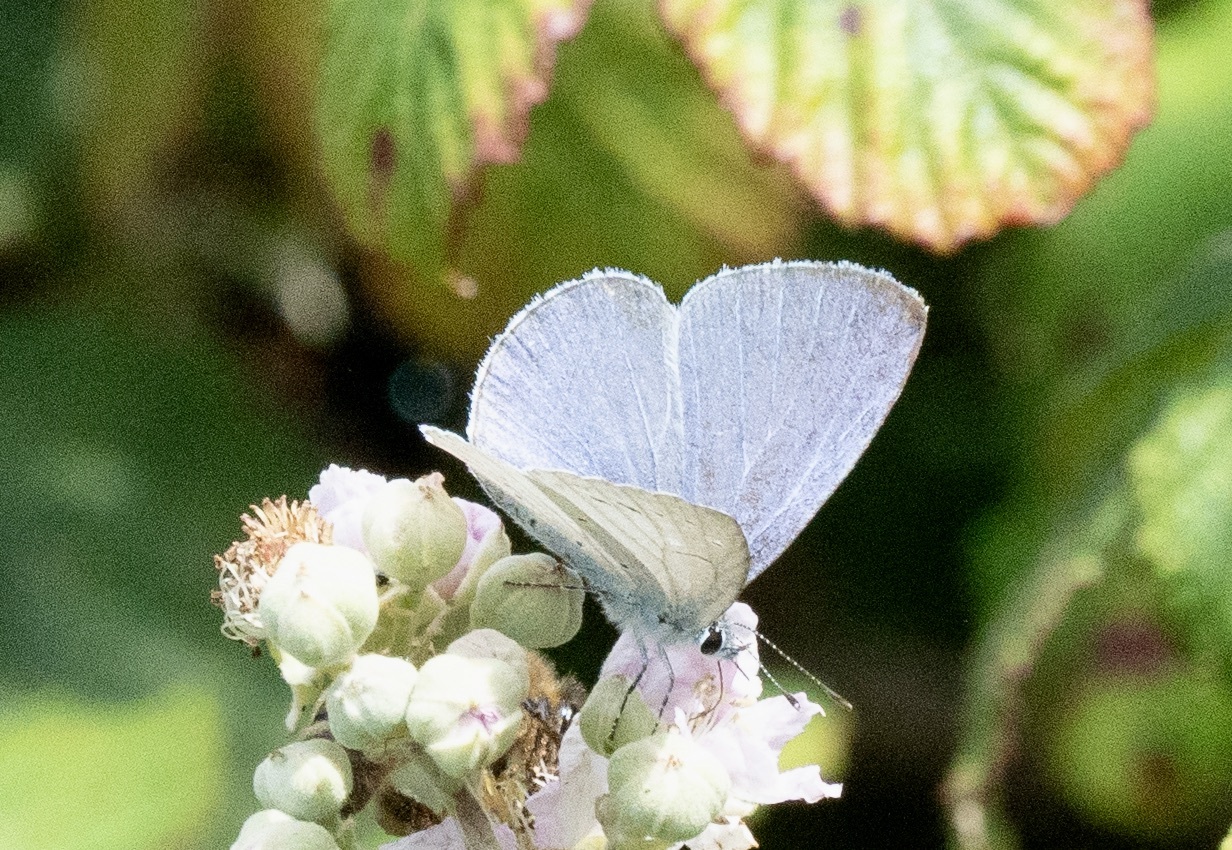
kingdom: Animalia
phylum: Arthropoda
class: Insecta
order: Lepidoptera
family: Lycaenidae
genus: Celastrina
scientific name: Celastrina argiolus
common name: Holly blue
